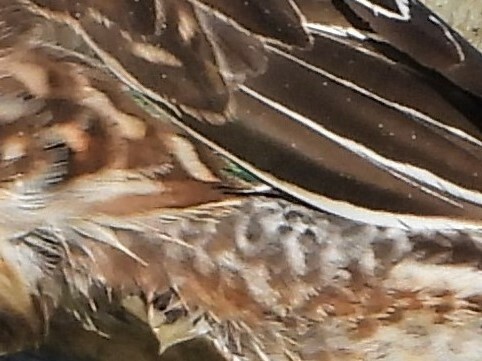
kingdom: Animalia
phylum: Chordata
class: Aves
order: Anseriformes
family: Anatidae
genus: Anas
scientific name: Anas crecca
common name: Eurasian teal
